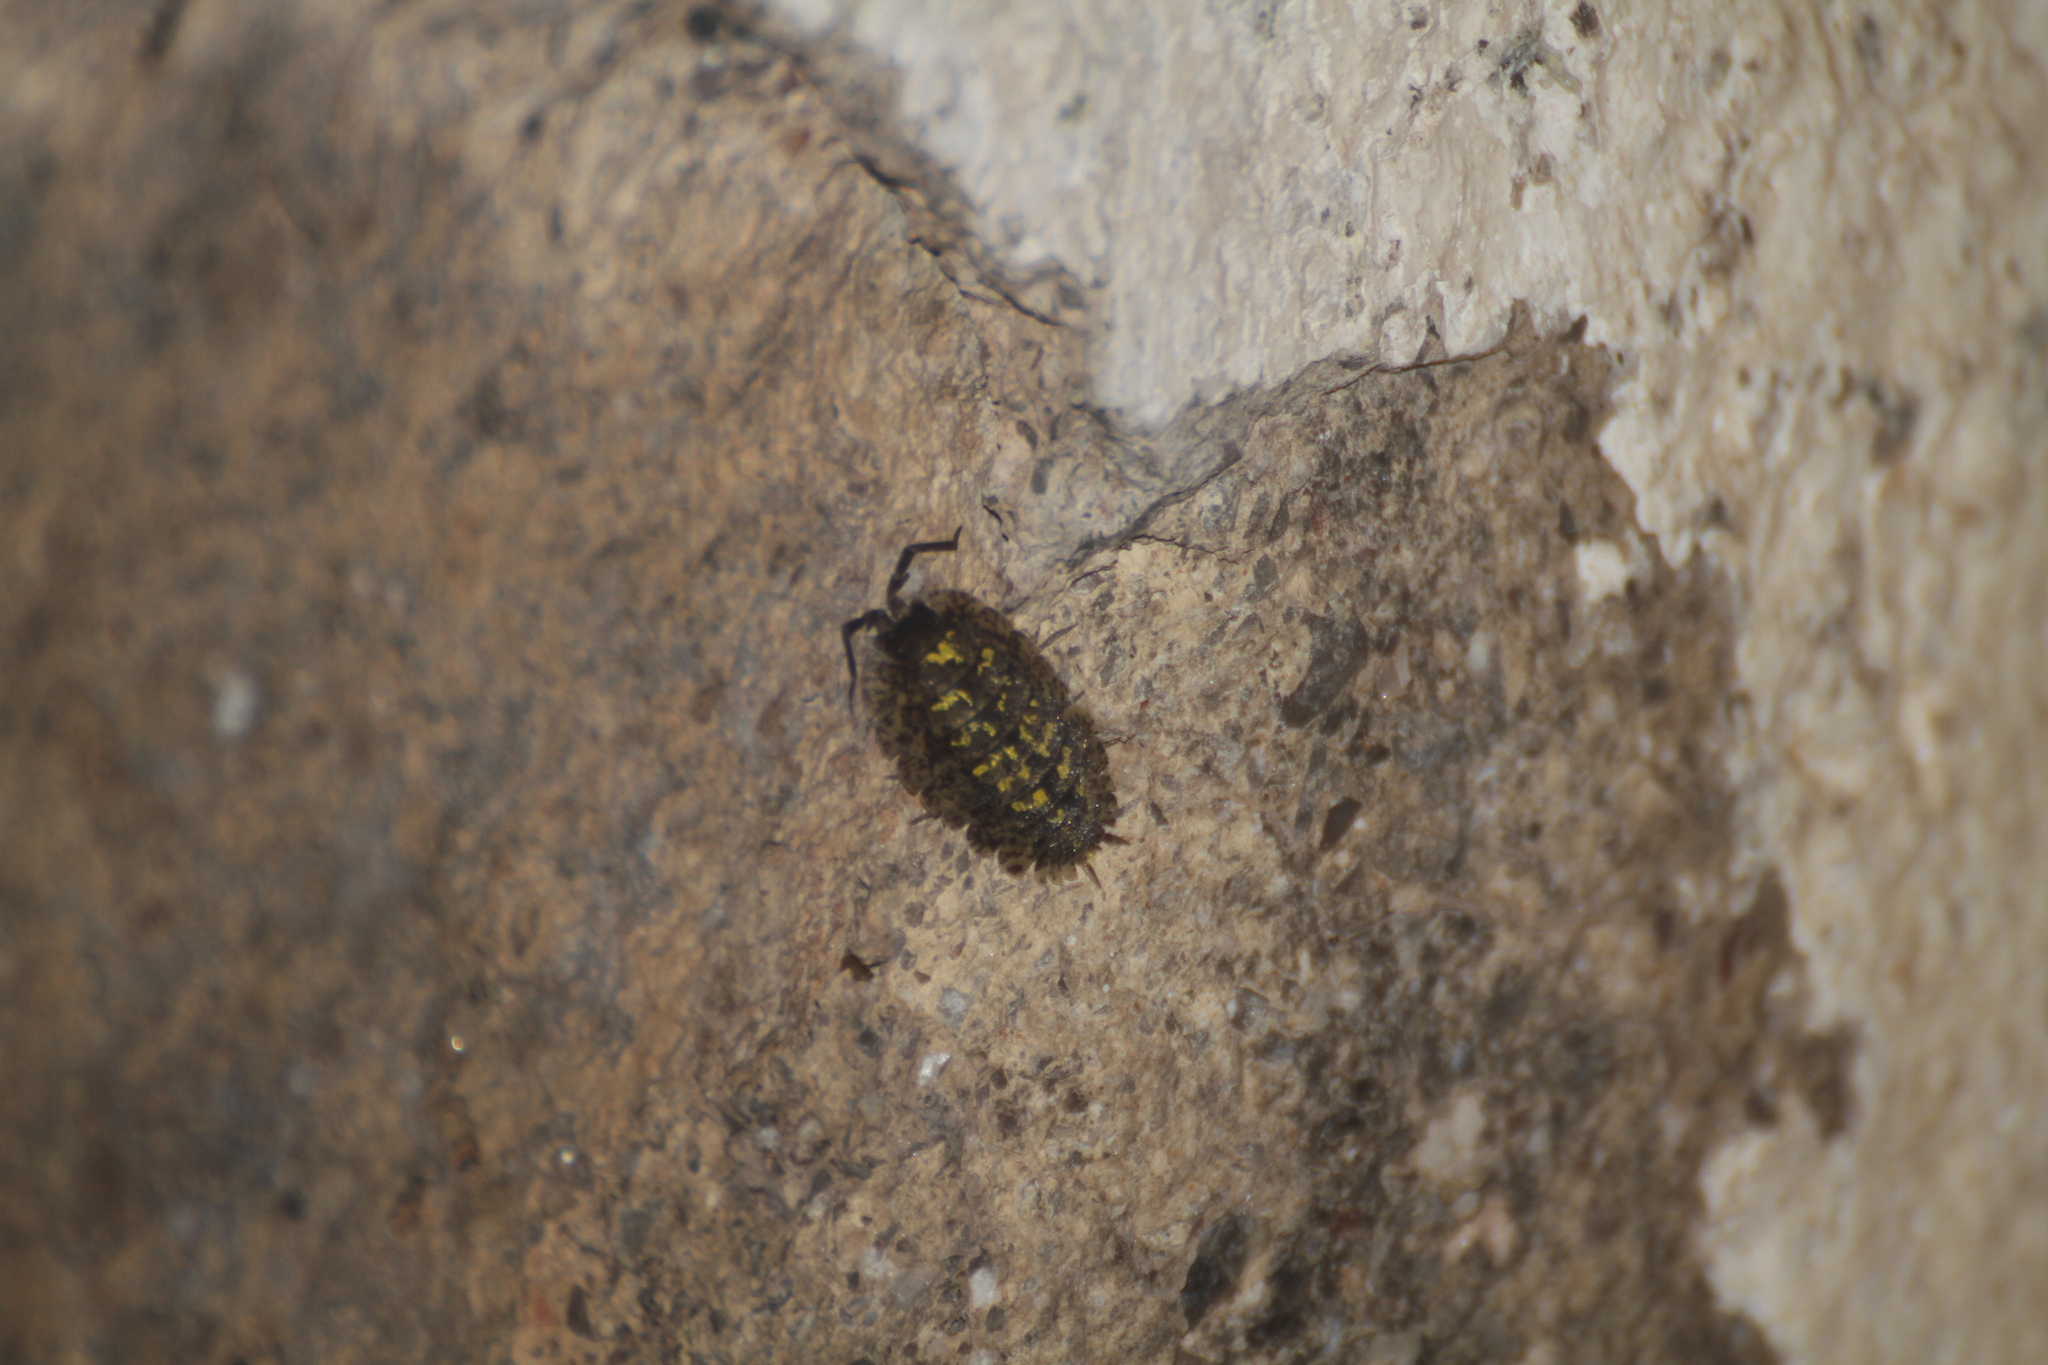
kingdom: Animalia
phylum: Arthropoda
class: Malacostraca
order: Isopoda
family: Porcellionidae
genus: Porcellio
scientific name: Porcellio spinipennis
